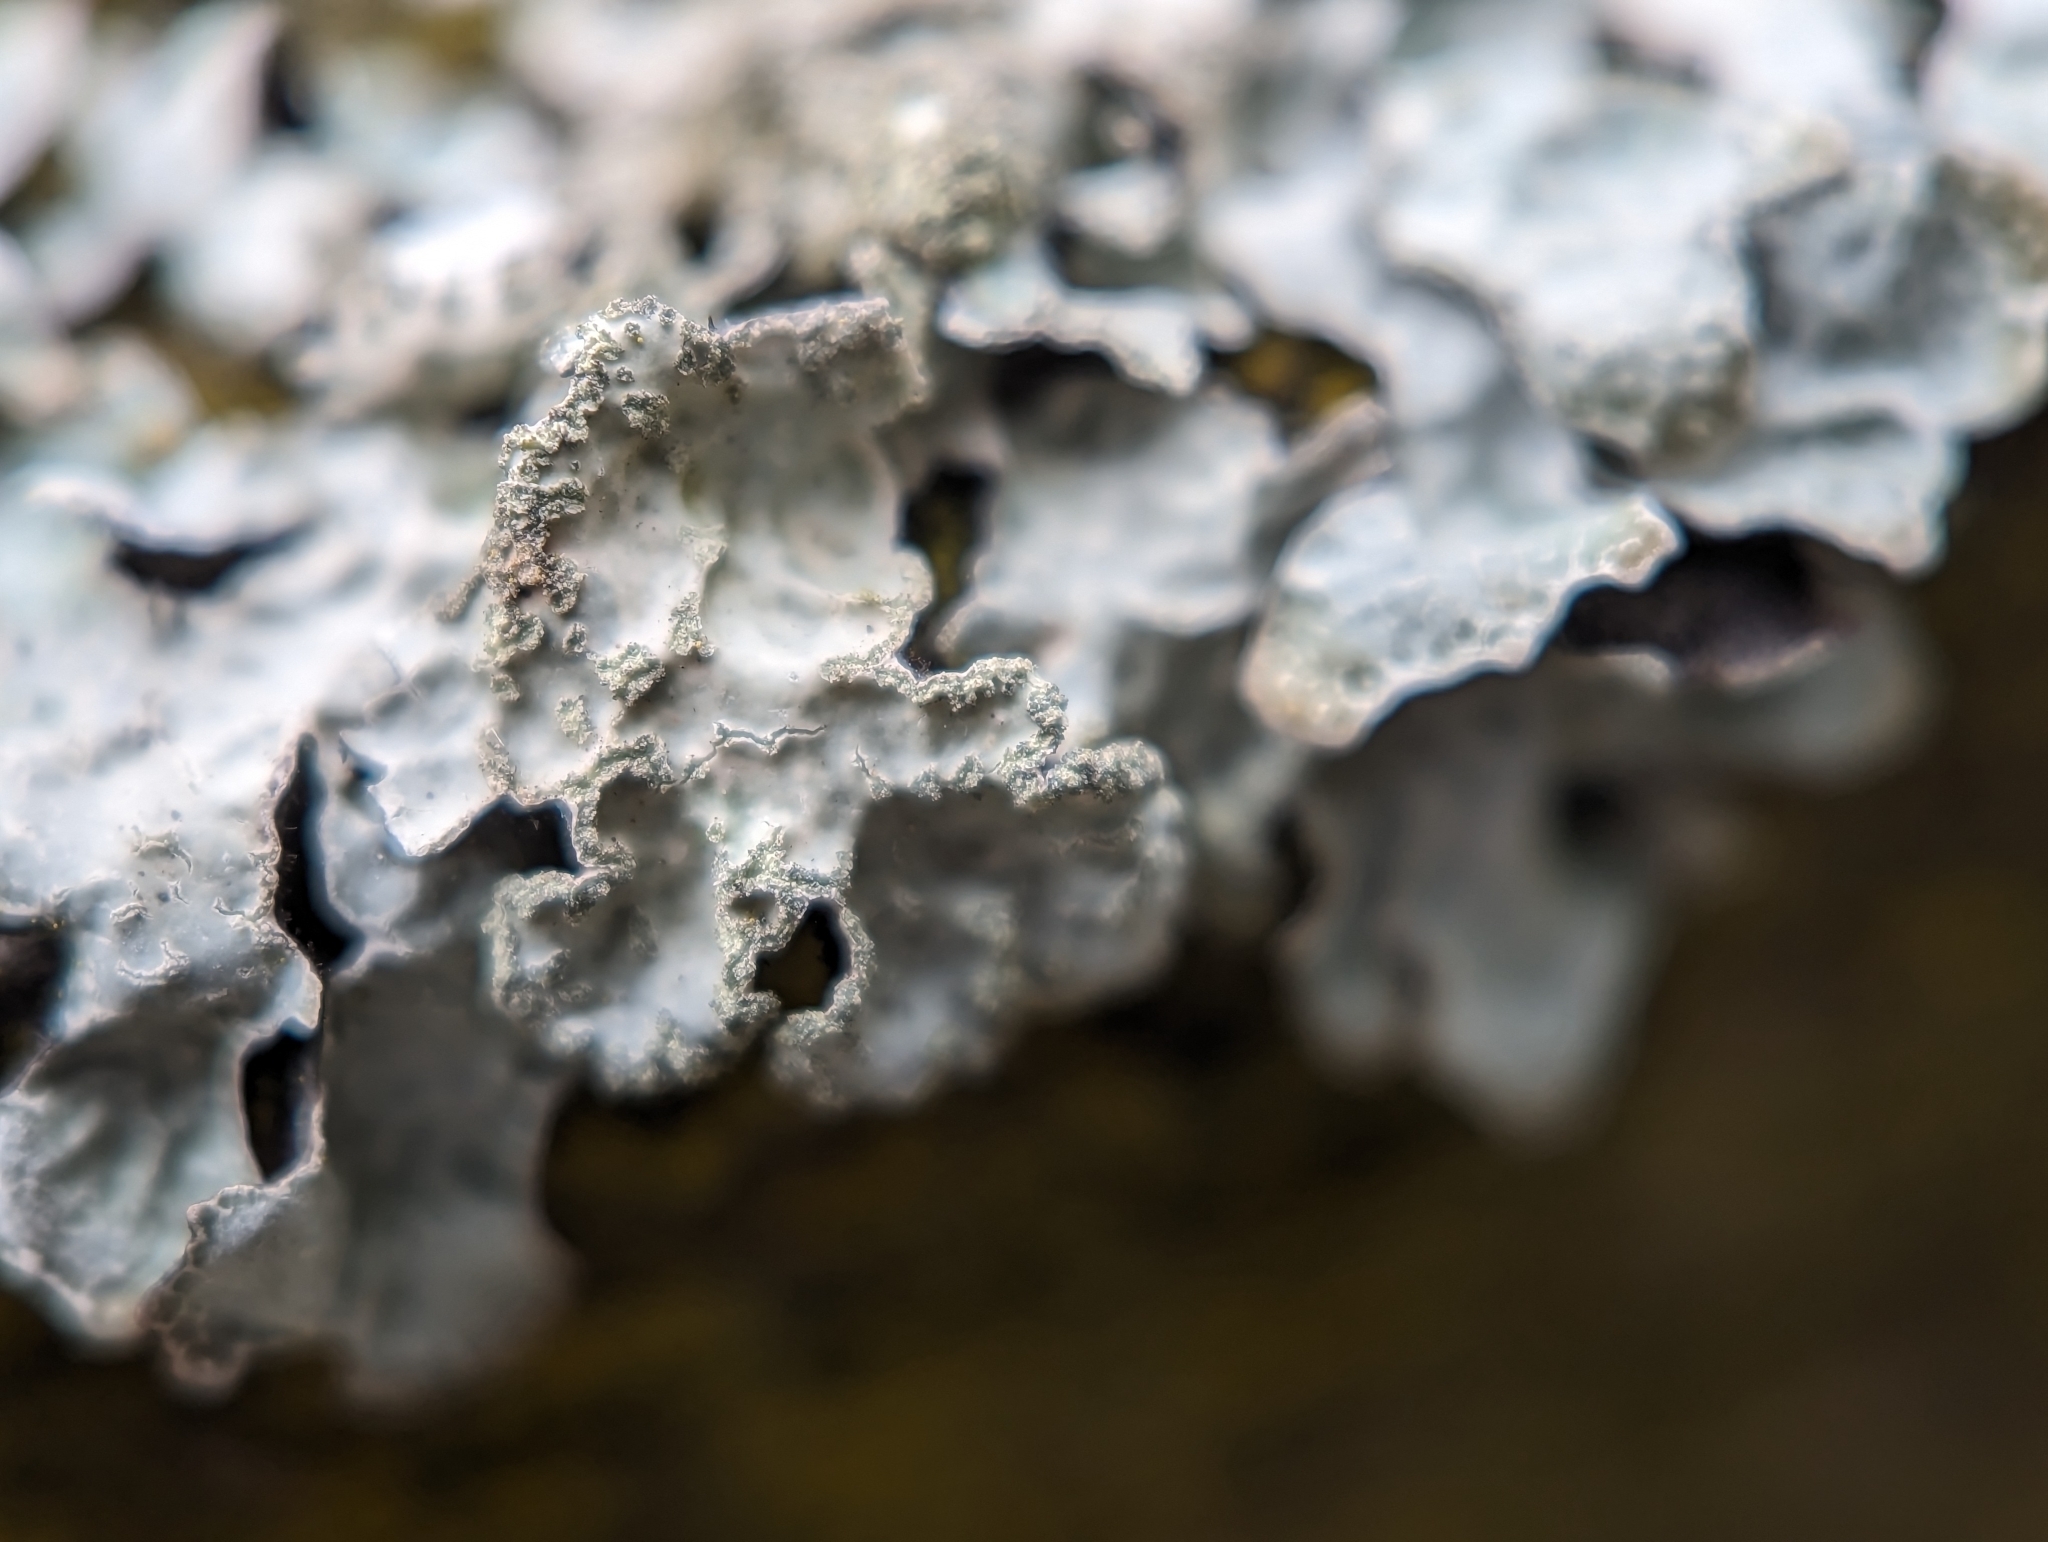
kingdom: Fungi
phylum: Ascomycota
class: Lecanoromycetes
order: Lecanorales
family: Parmeliaceae
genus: Parmelia
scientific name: Parmelia sulcata
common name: Netted shield lichen
